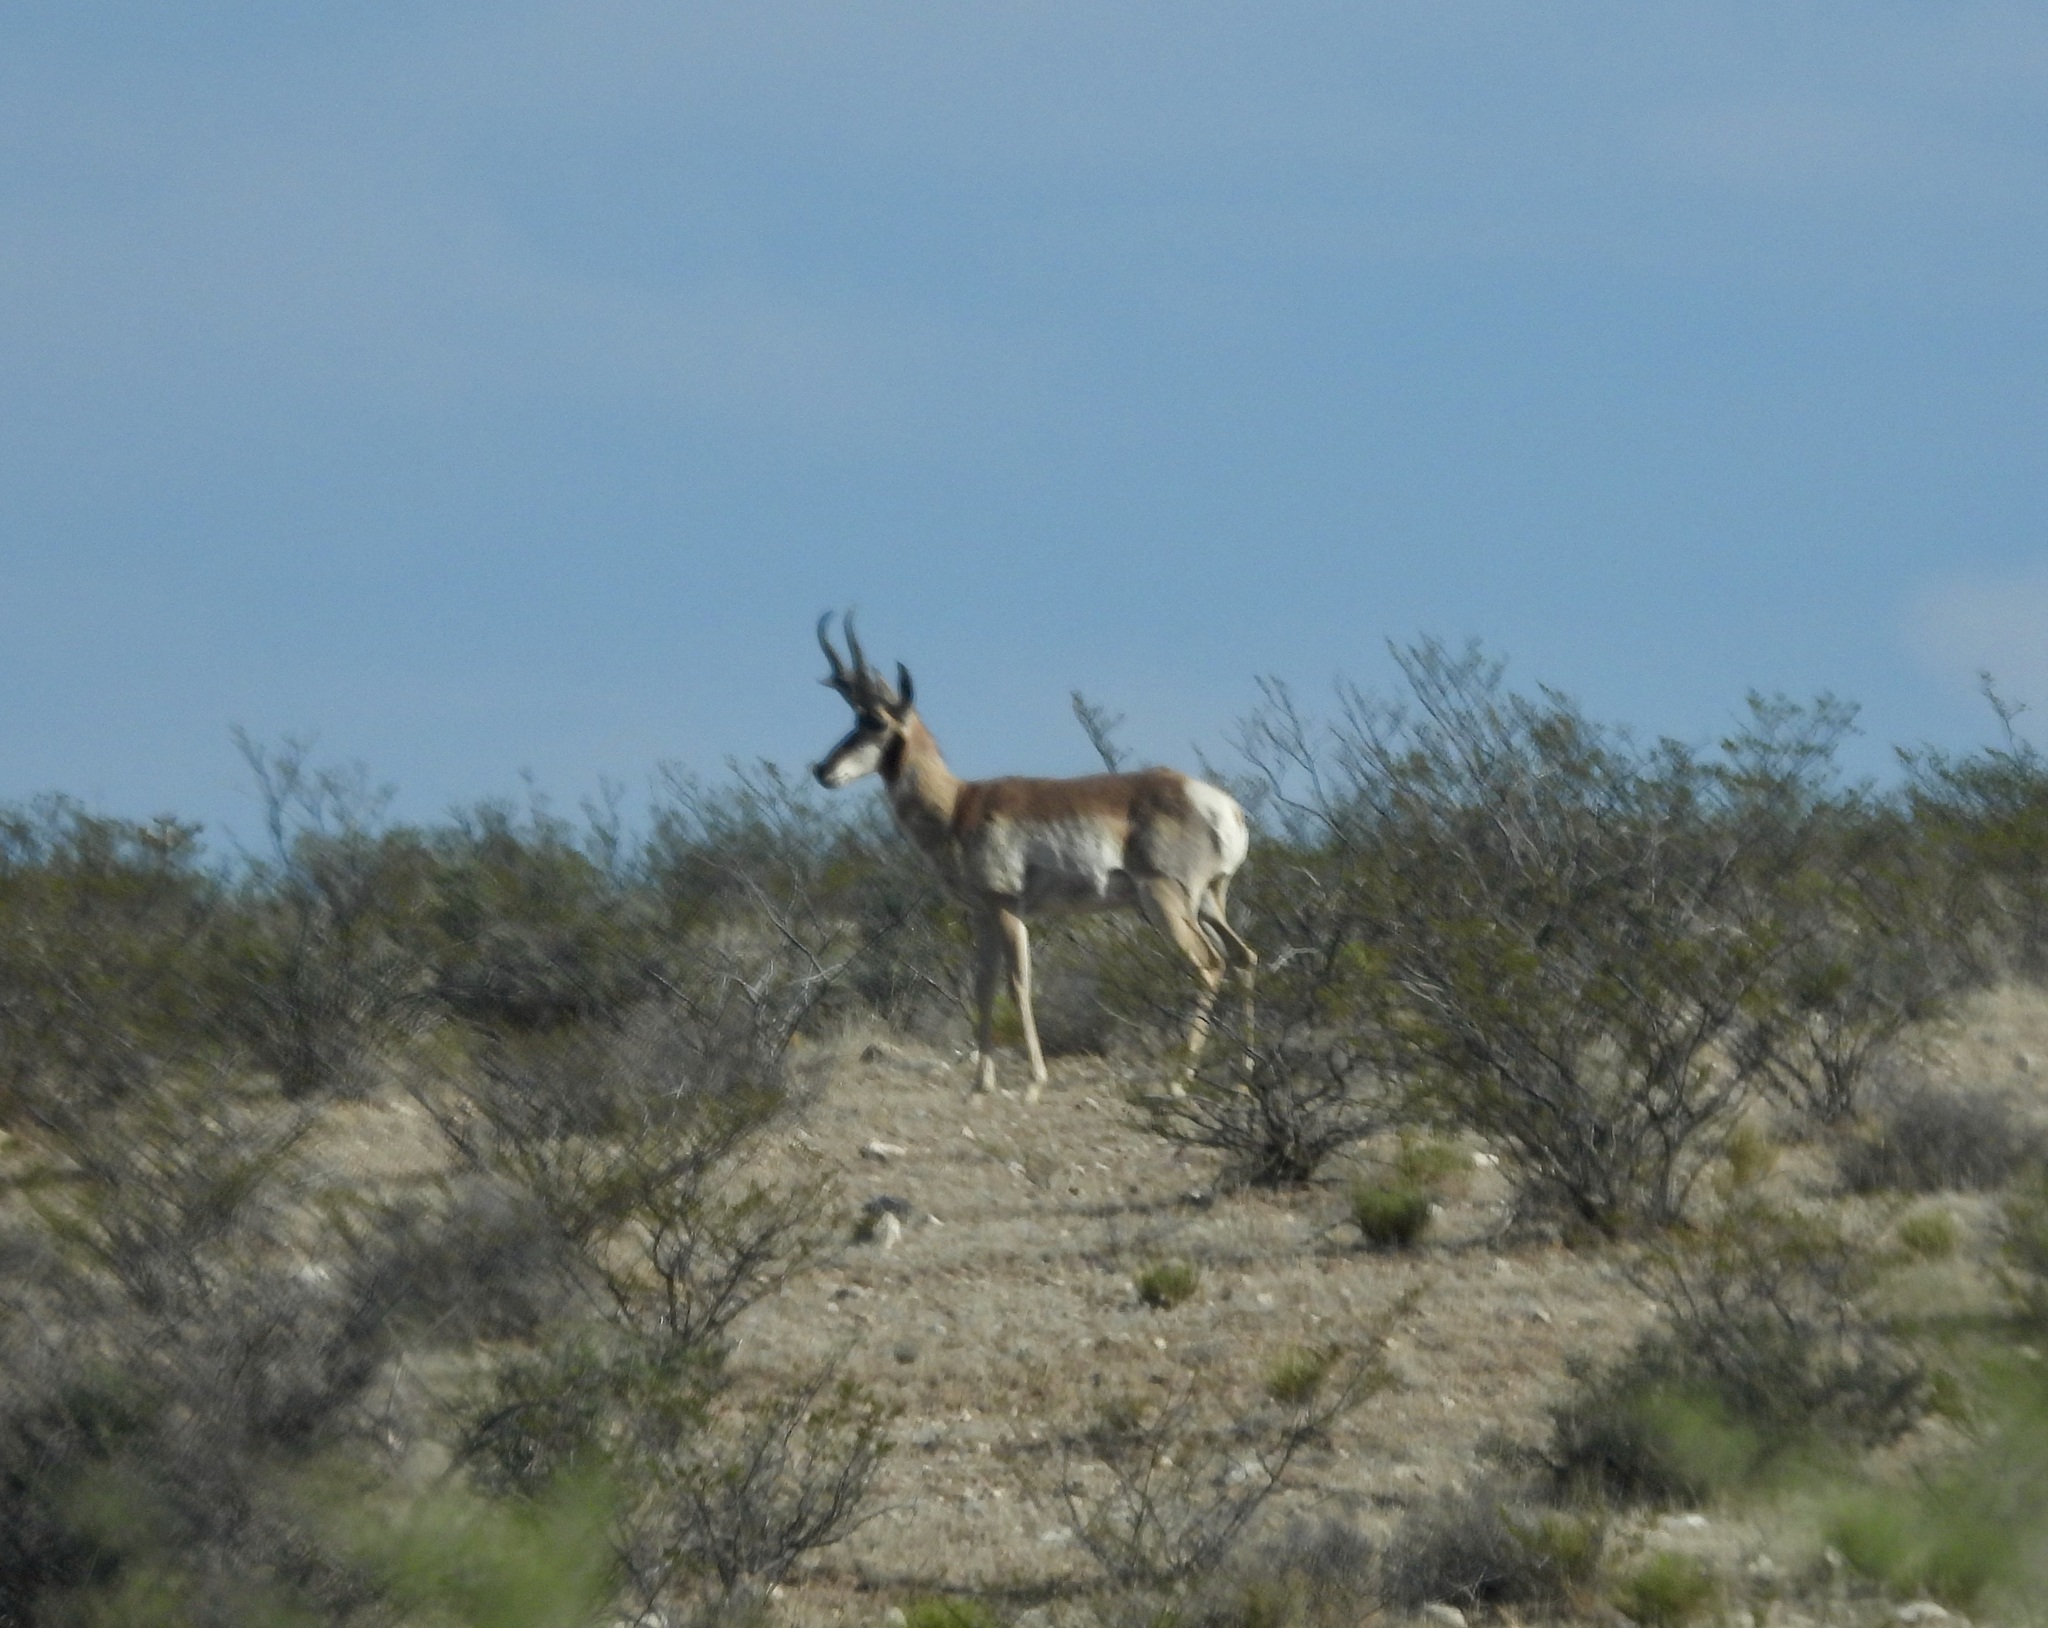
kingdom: Animalia
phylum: Chordata
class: Mammalia
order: Artiodactyla
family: Antilocapridae
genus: Antilocapra
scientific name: Antilocapra americana
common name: Pronghorn
